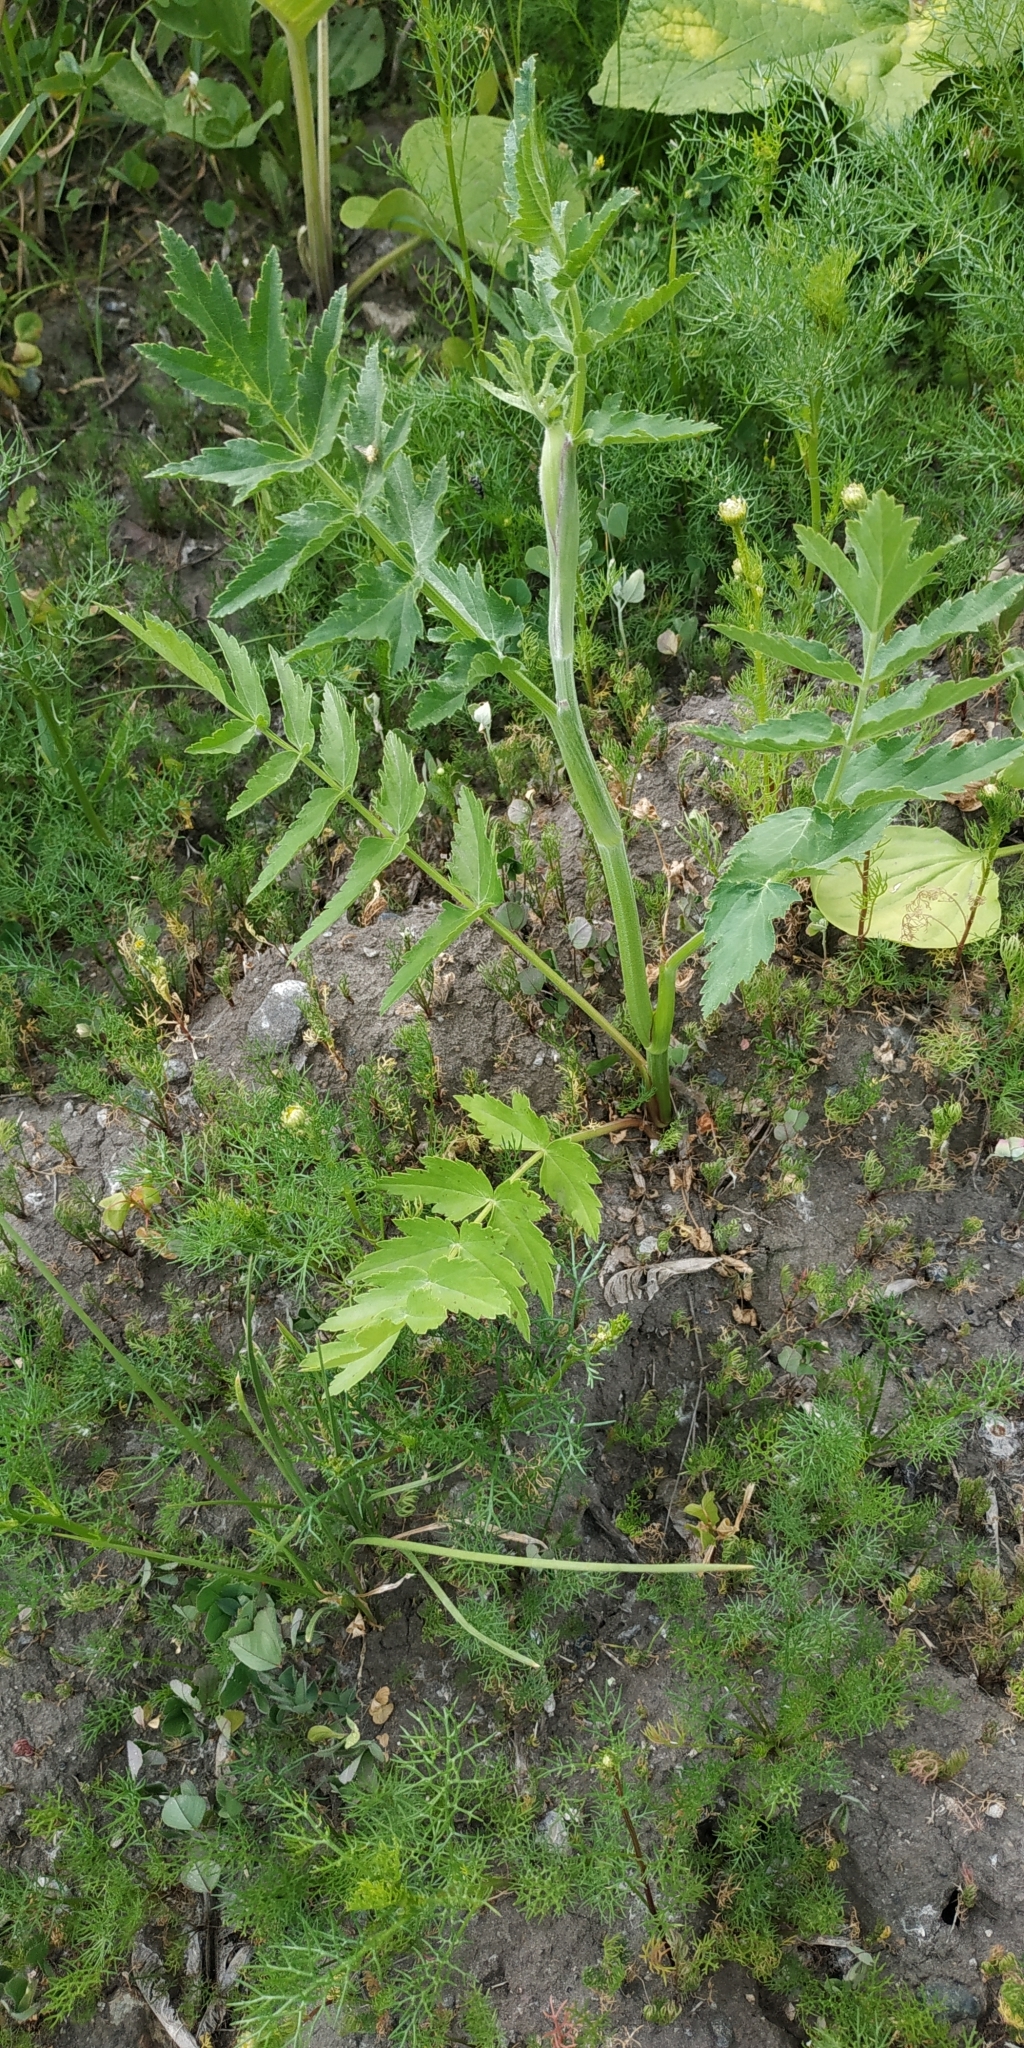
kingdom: Plantae
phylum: Tracheophyta
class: Magnoliopsida
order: Apiales
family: Apiaceae
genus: Pastinaca
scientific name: Pastinaca sativa
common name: Wild parsnip
